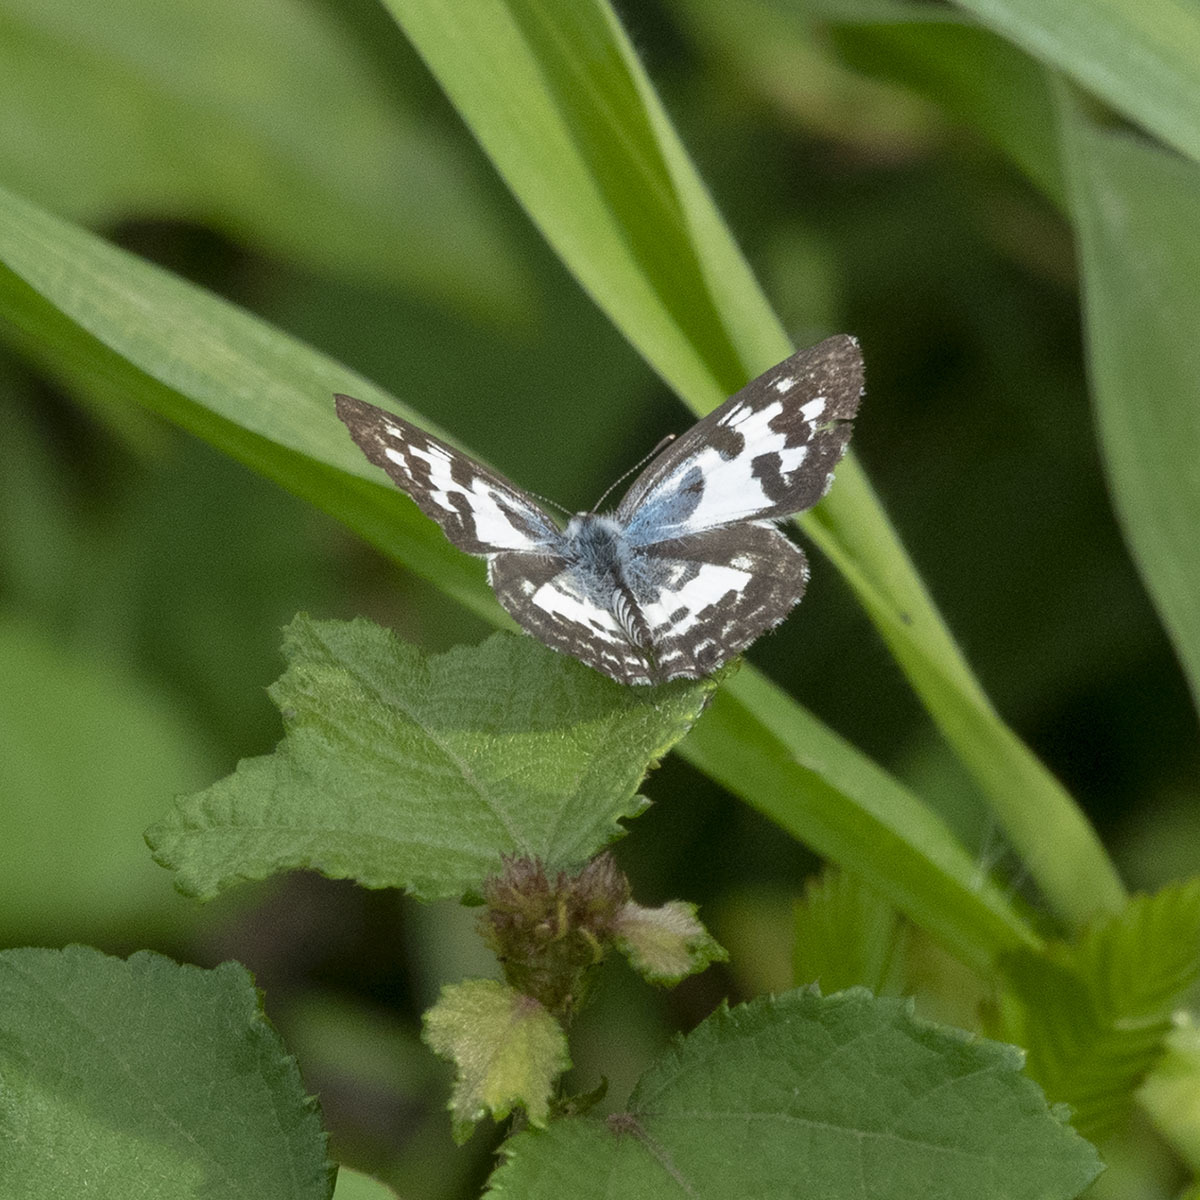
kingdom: Animalia
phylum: Arthropoda
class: Insecta
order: Lepidoptera
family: Lycaenidae
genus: Castalius
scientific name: Castalius rosimon
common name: Common pierrot
